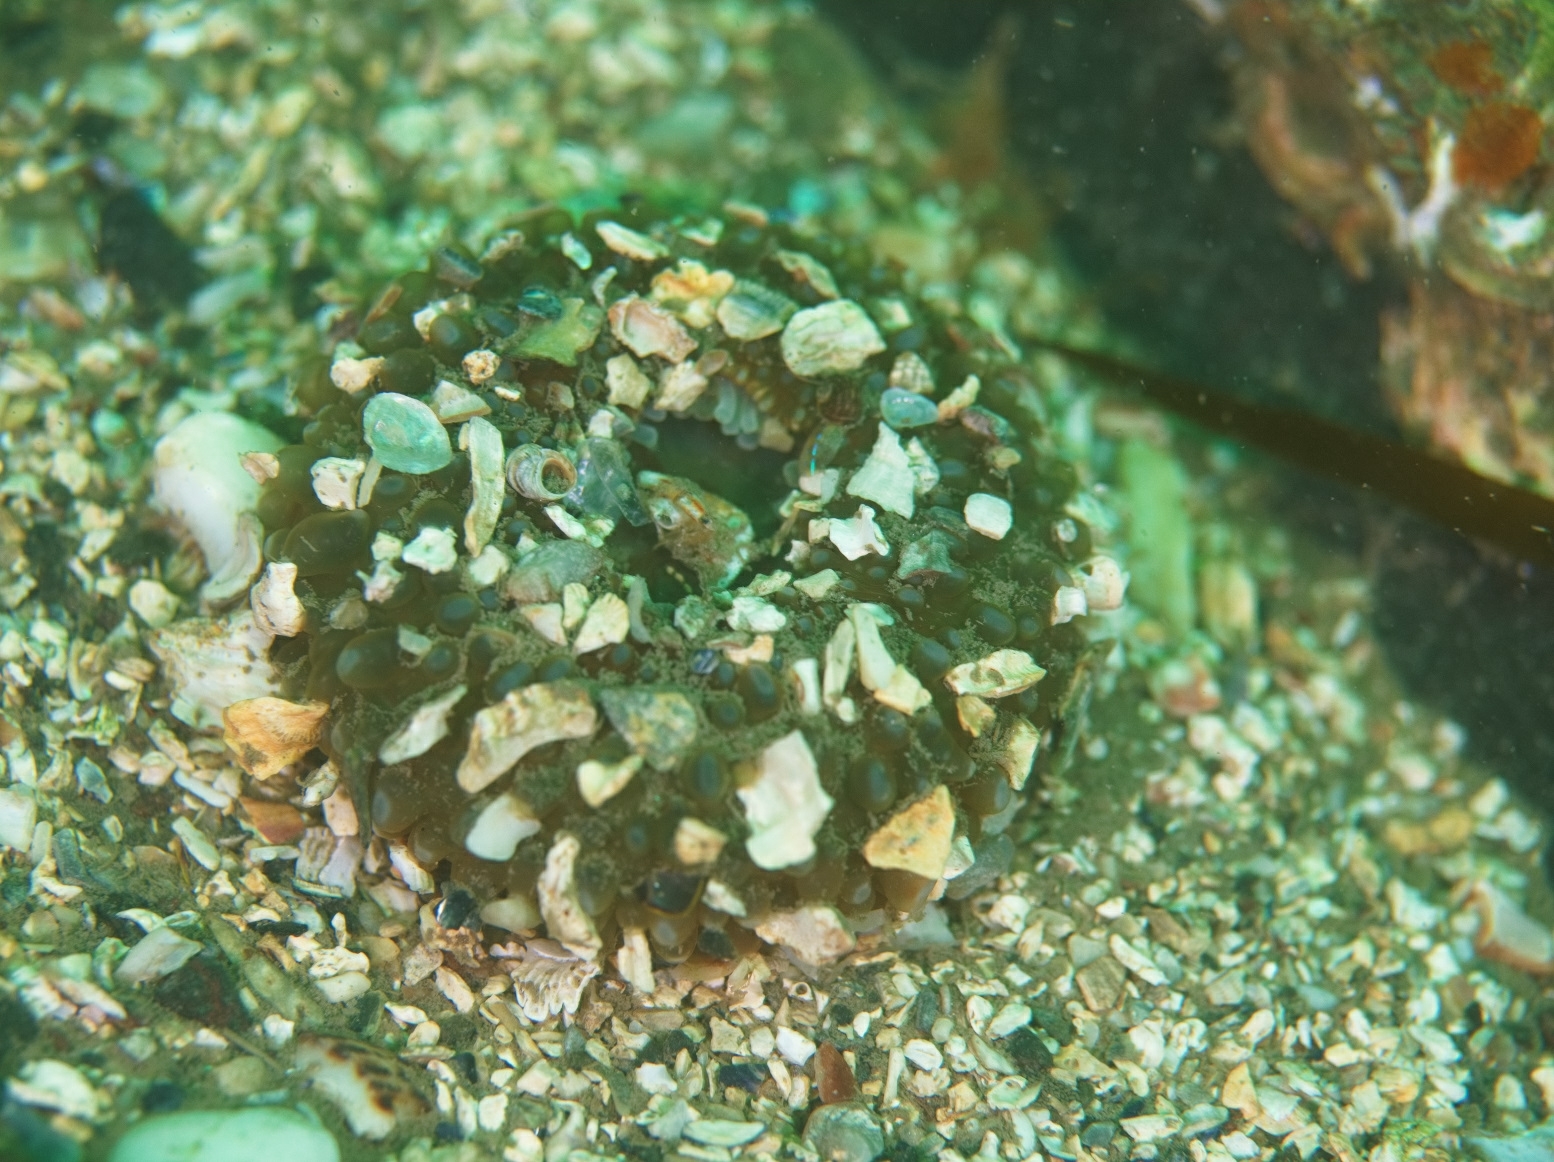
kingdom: Animalia
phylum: Cnidaria
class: Anthozoa
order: Actiniaria
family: Actiniidae
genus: Urticina
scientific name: Urticina felina
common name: Dahlia anemone
